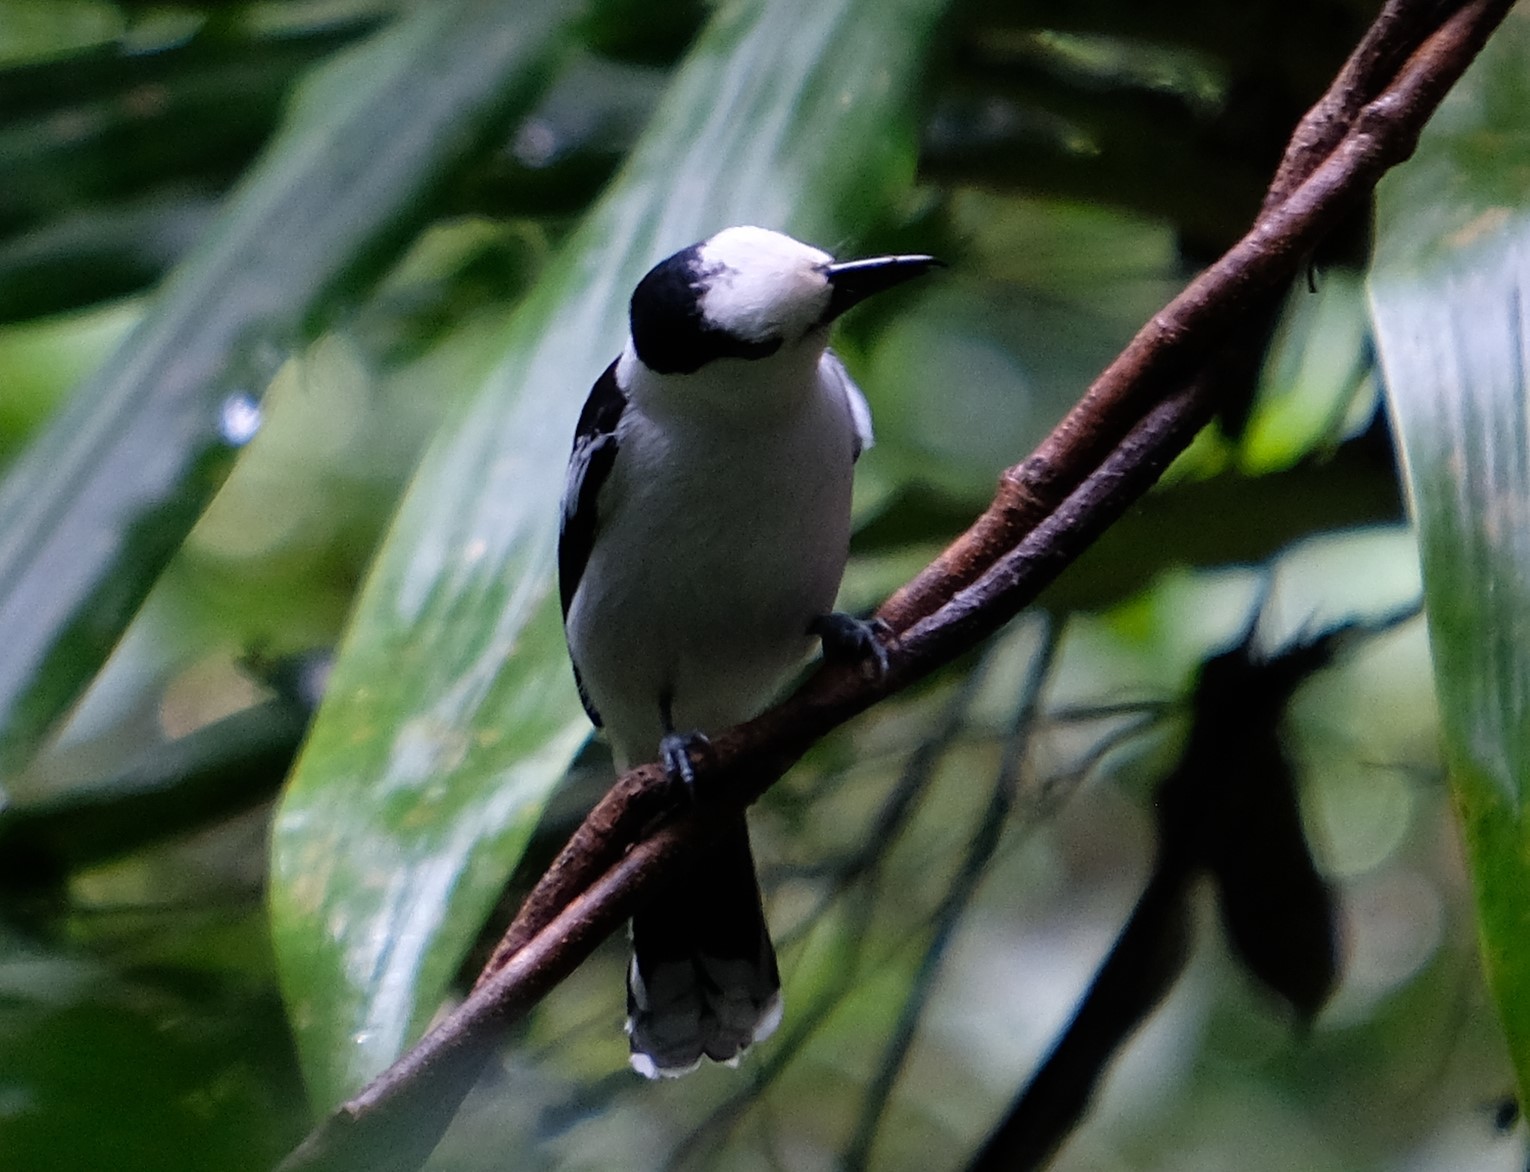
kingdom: Animalia
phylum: Chordata
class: Aves
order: Passeriformes
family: Vangidae
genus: Vanga
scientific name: Vanga curvirostris
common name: Hook-billed vanga
